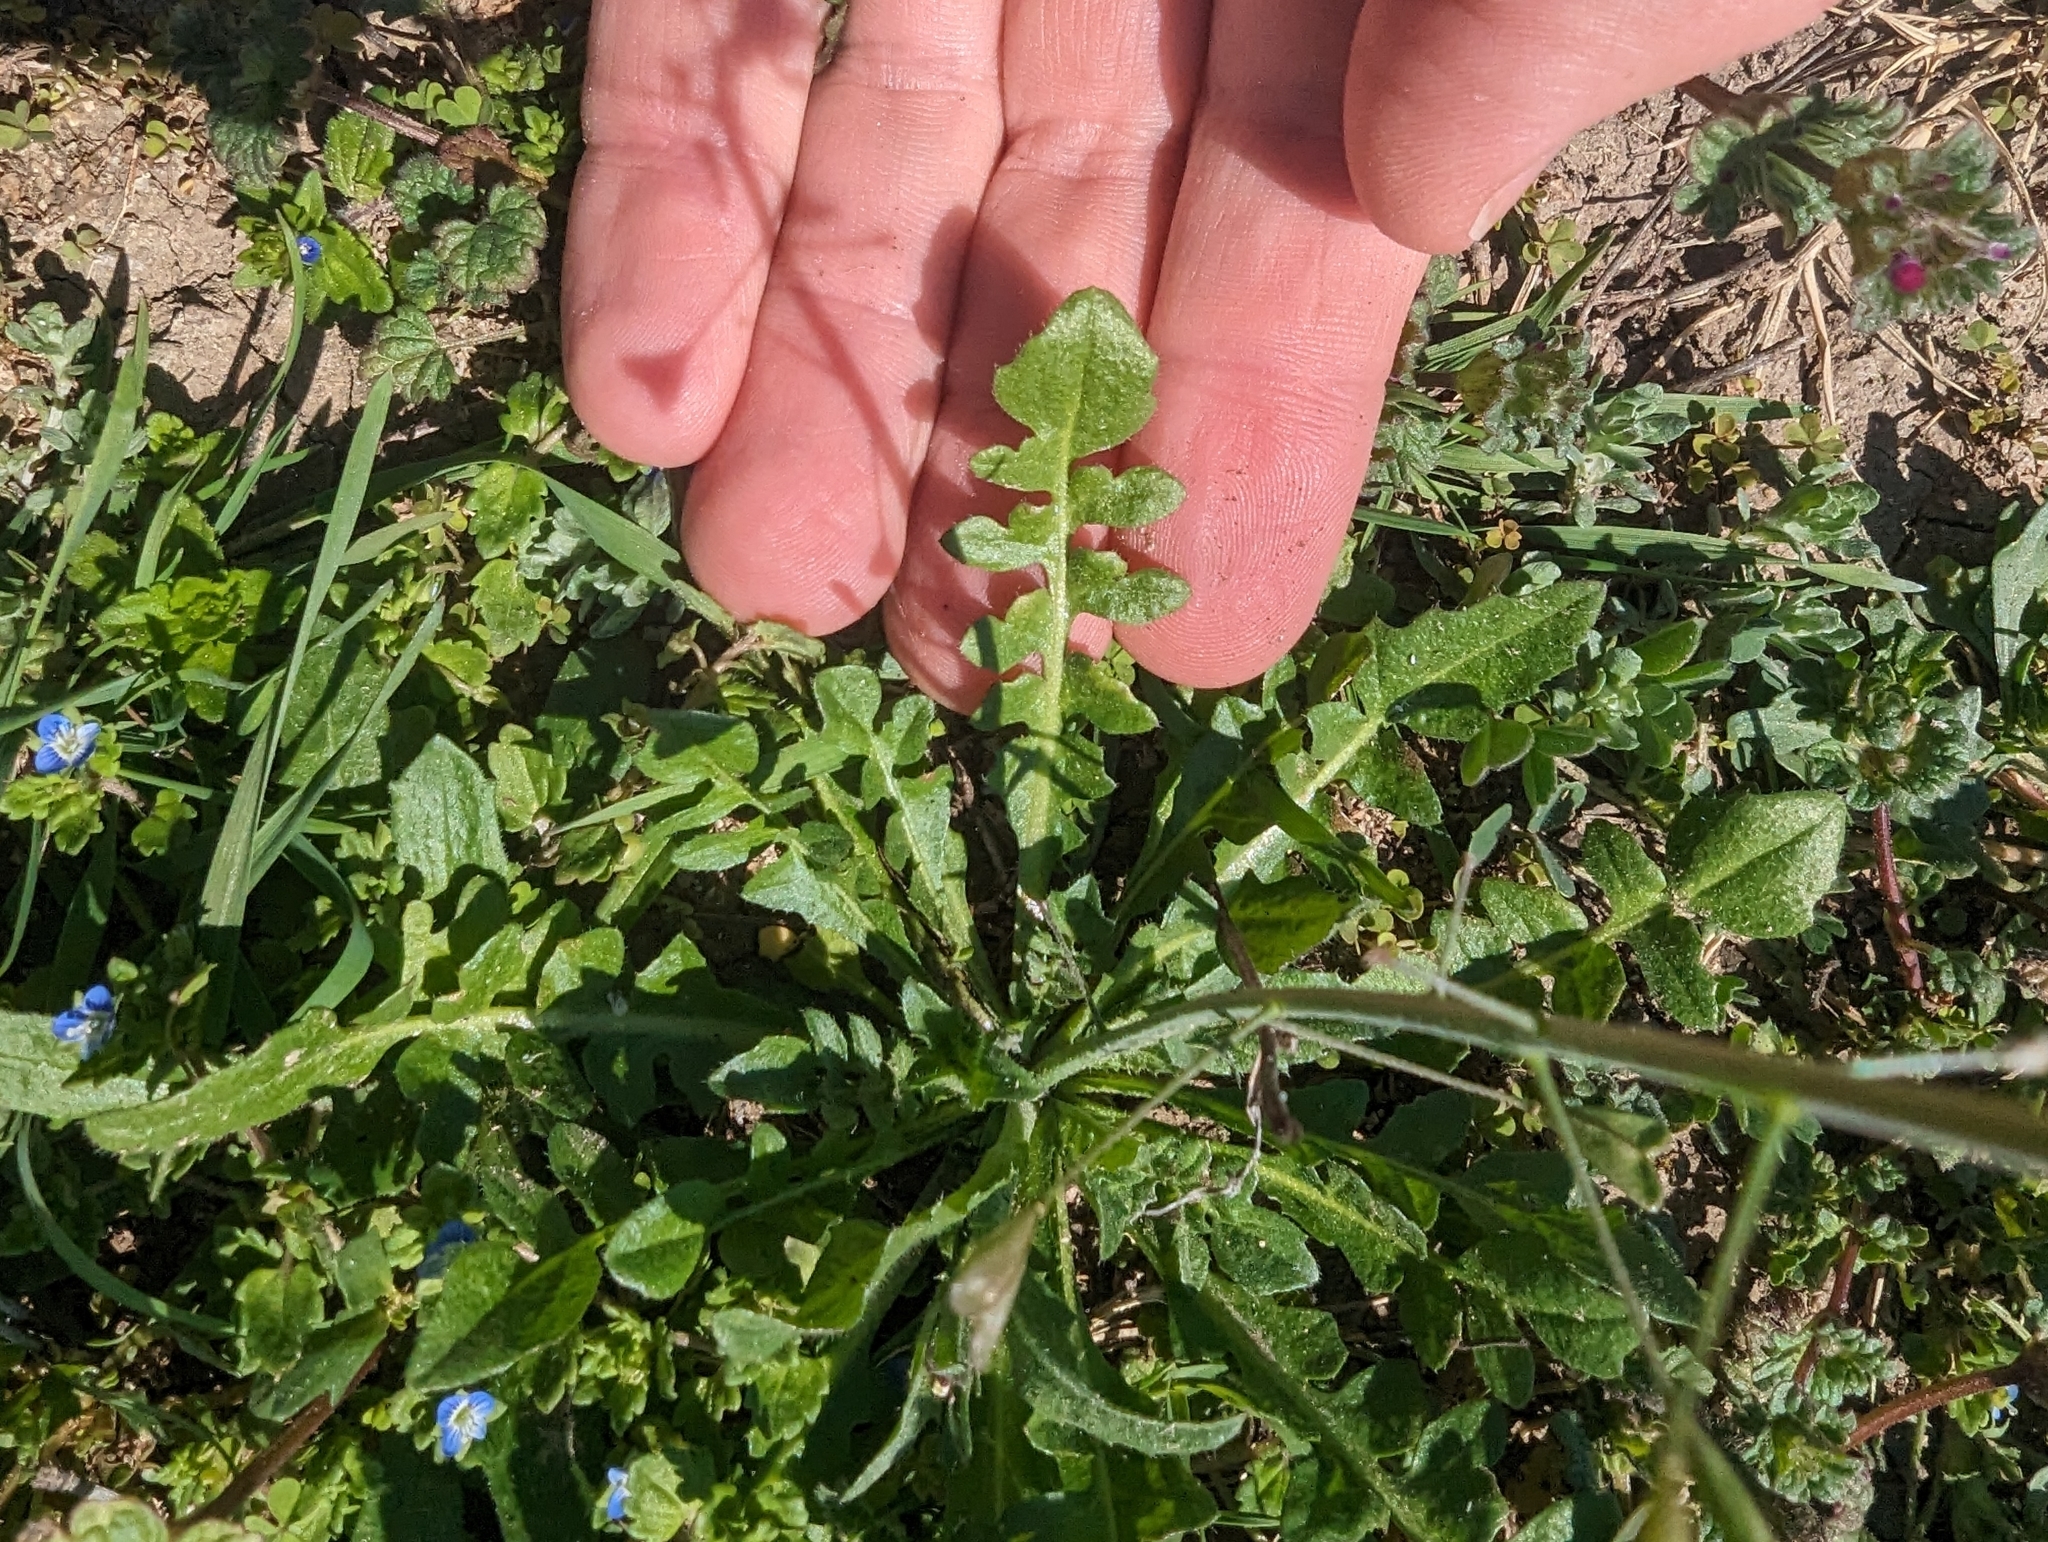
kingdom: Plantae
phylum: Tracheophyta
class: Magnoliopsida
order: Brassicales
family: Brassicaceae
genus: Capsella
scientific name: Capsella bursa-pastoris
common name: Shepherd's purse
